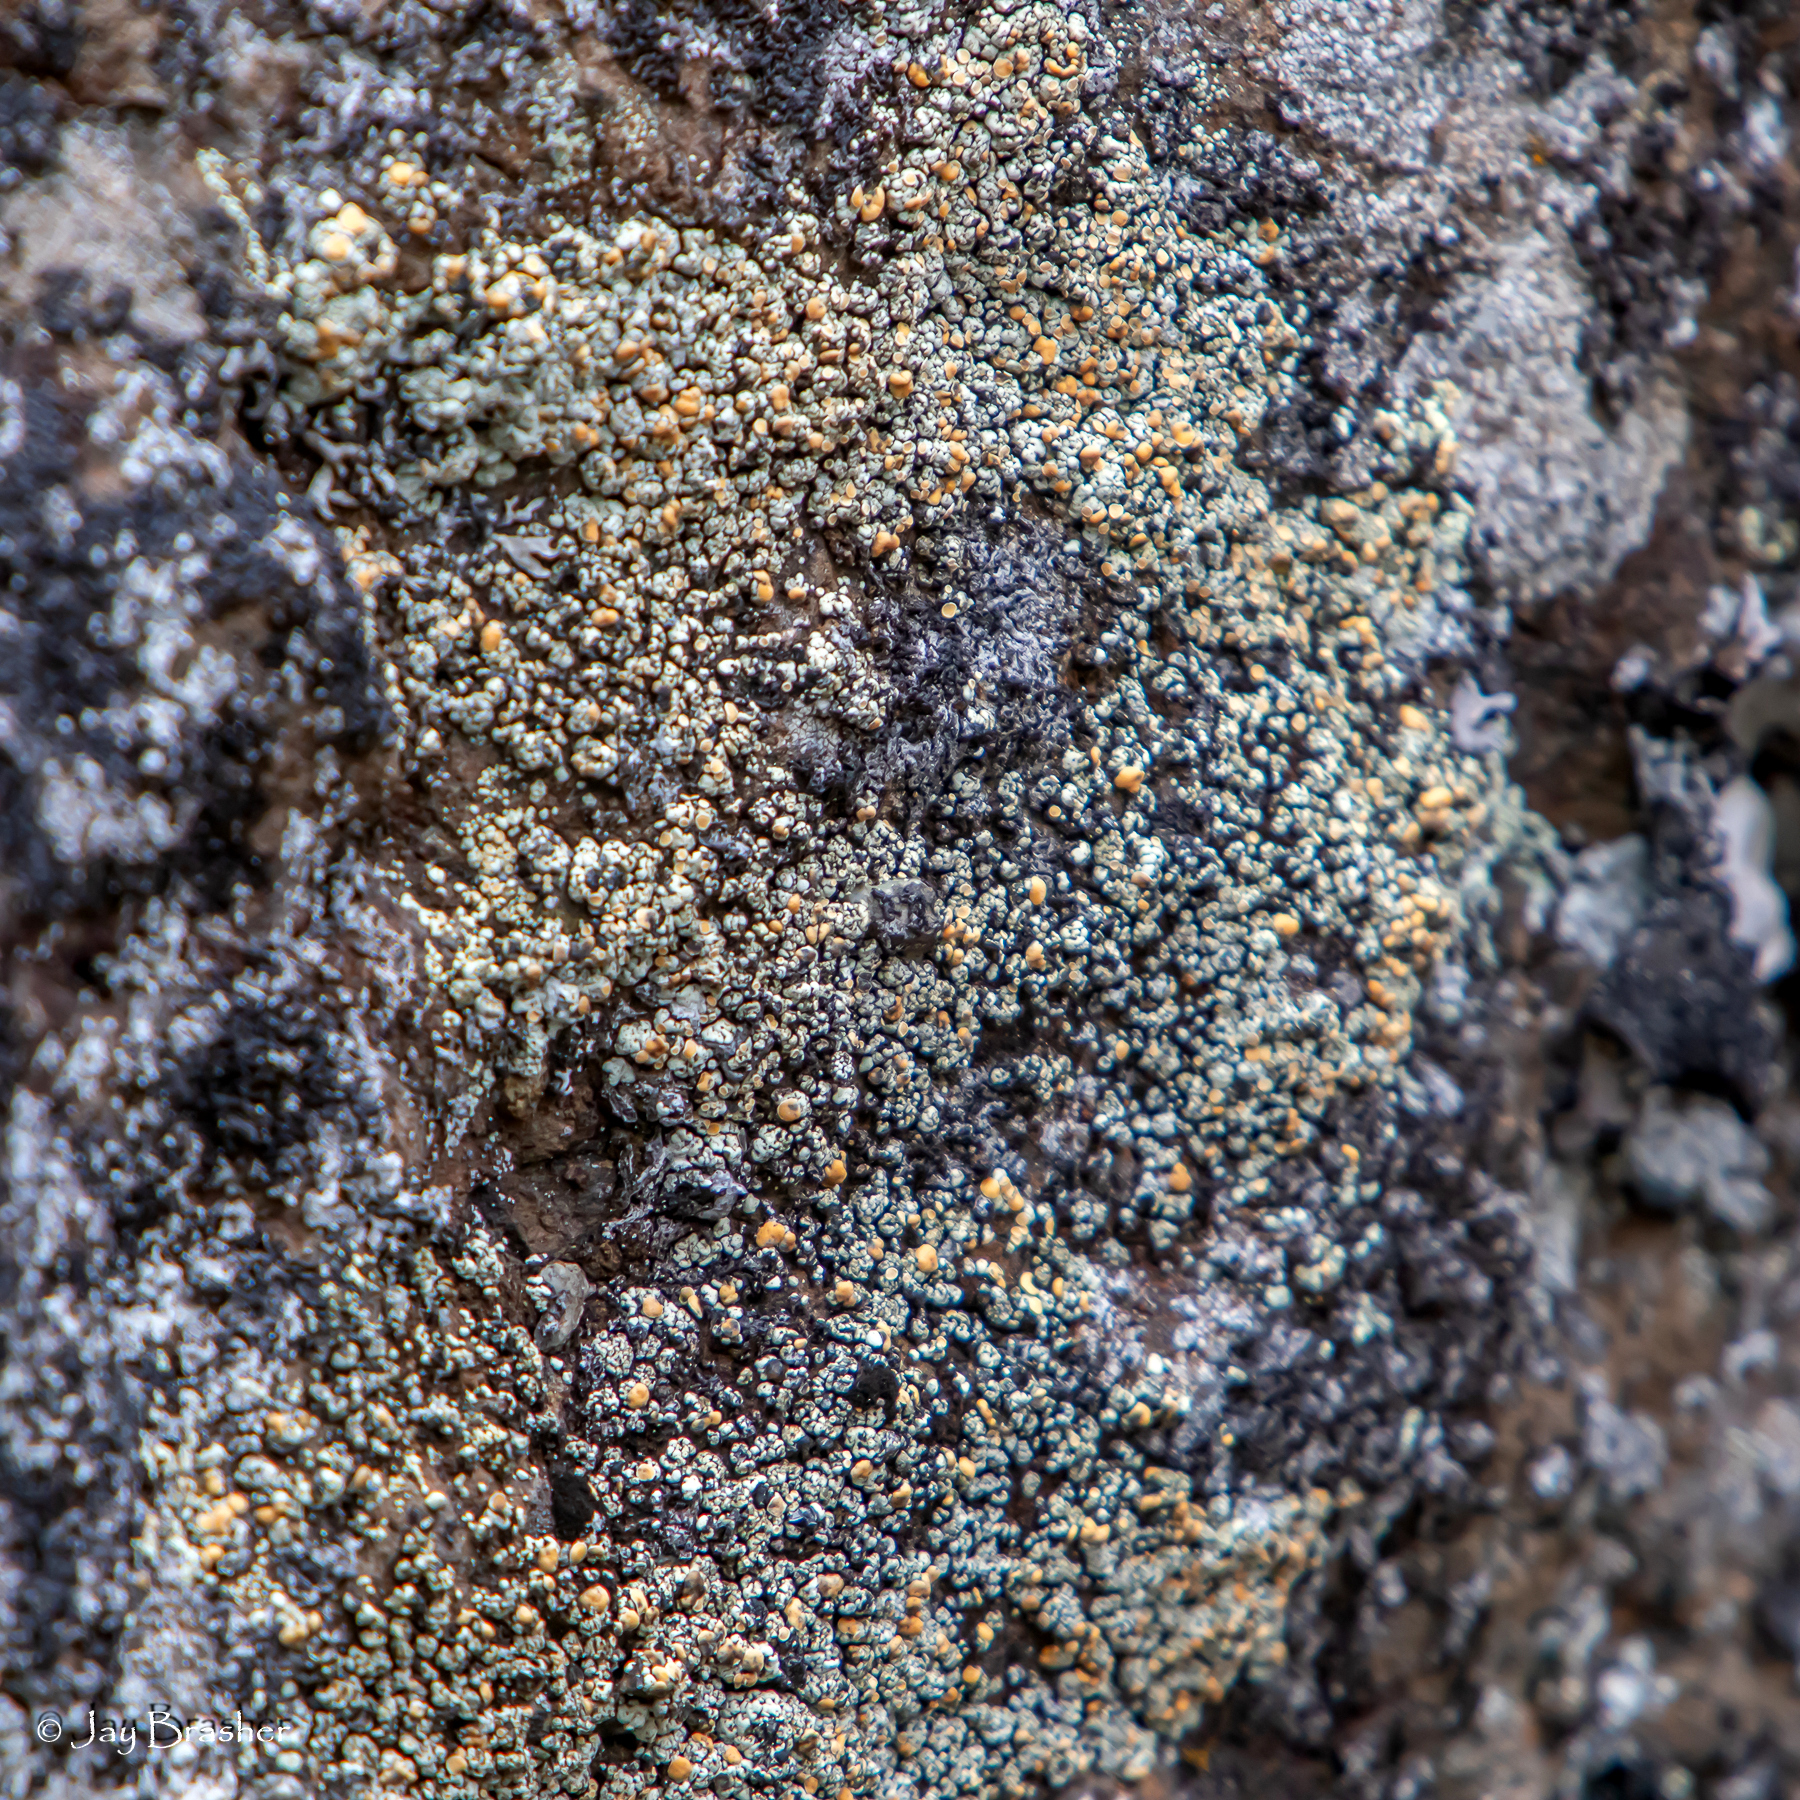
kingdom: Fungi
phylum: Ascomycota
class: Lecanoromycetes
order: Lecanorales
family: Lecanoraceae
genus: Sedelnikovaea
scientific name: Sedelnikovaea subdiscrepans
